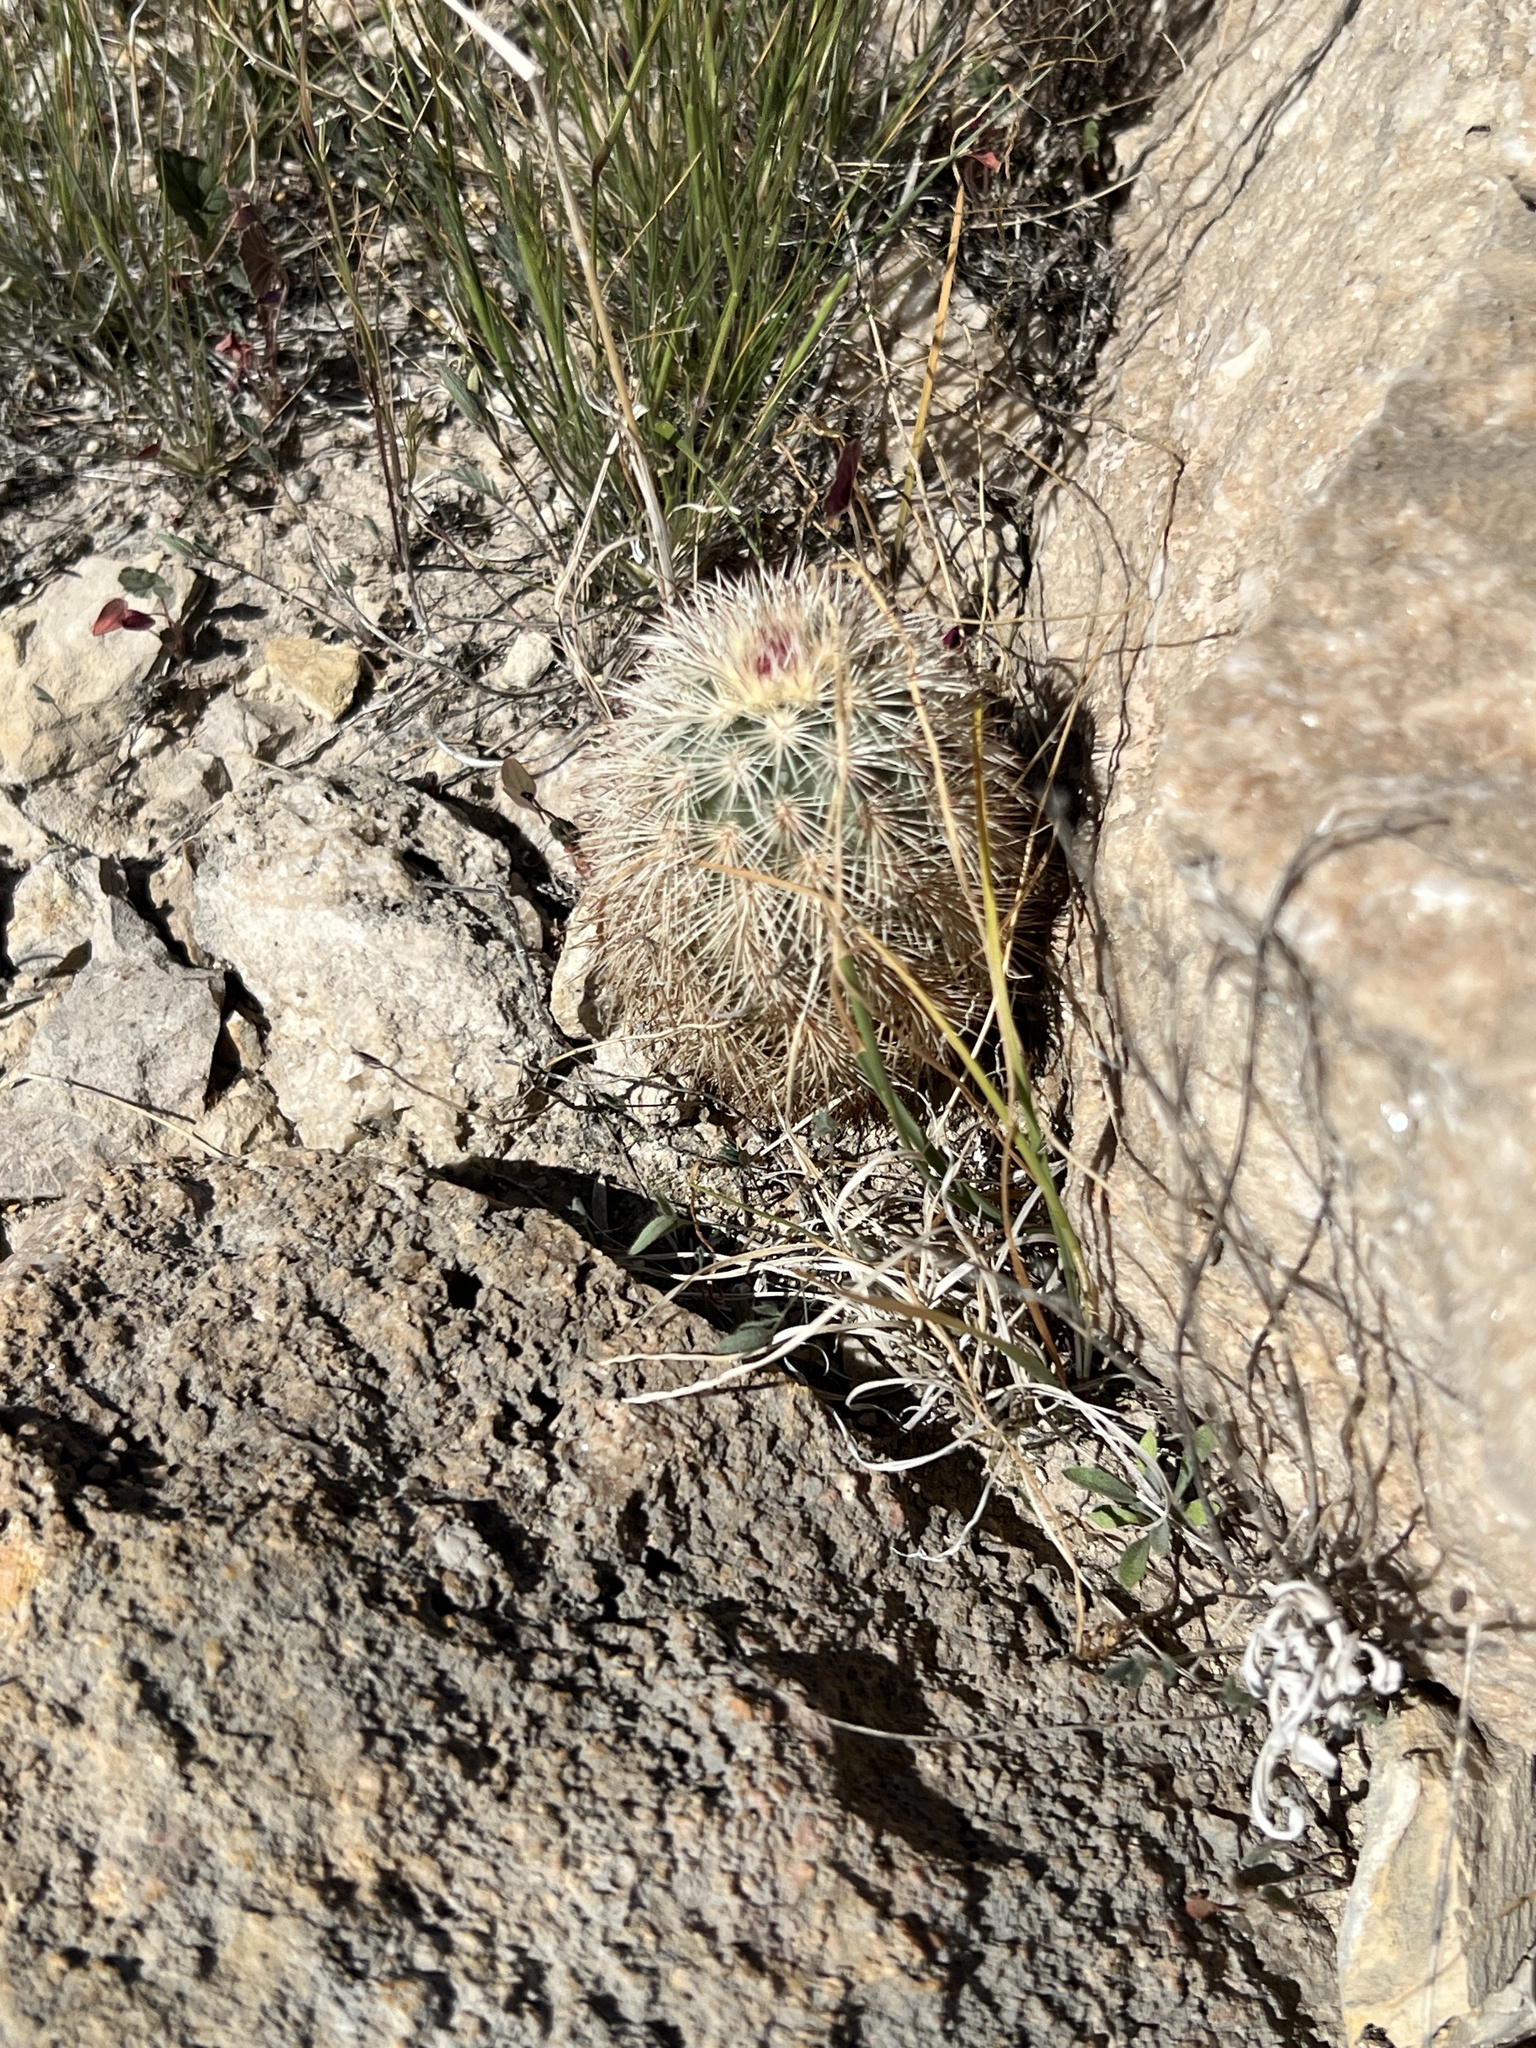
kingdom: Plantae
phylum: Tracheophyta
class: Magnoliopsida
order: Caryophyllales
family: Cactaceae
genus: Echinocereus
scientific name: Echinocereus dasyacanthus
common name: Spiny hedgehog cactus
